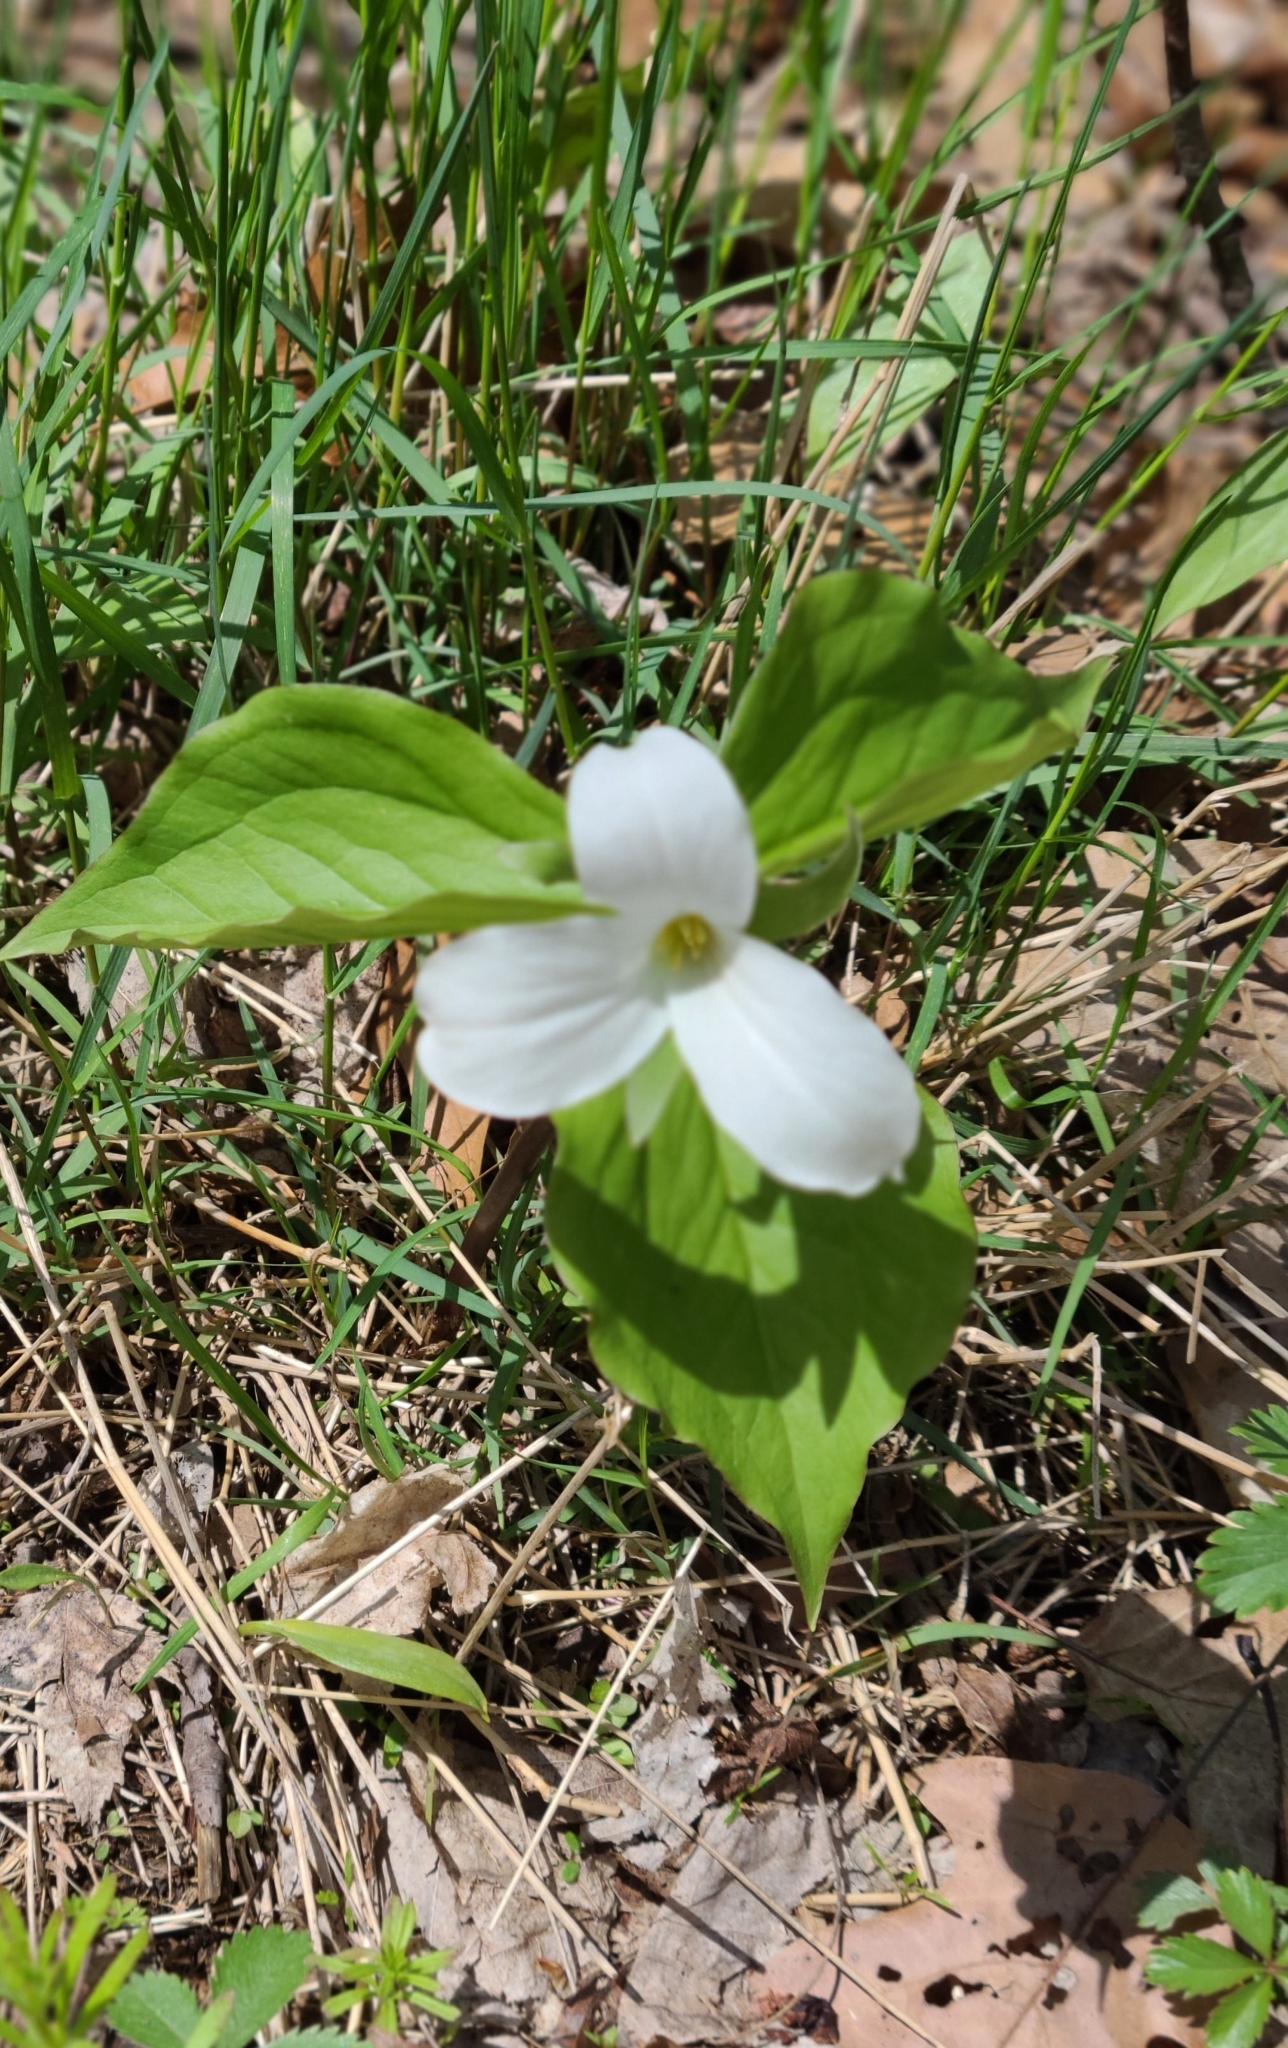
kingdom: Plantae
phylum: Tracheophyta
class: Liliopsida
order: Liliales
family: Melanthiaceae
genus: Trillium
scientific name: Trillium grandiflorum
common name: Great white trillium
